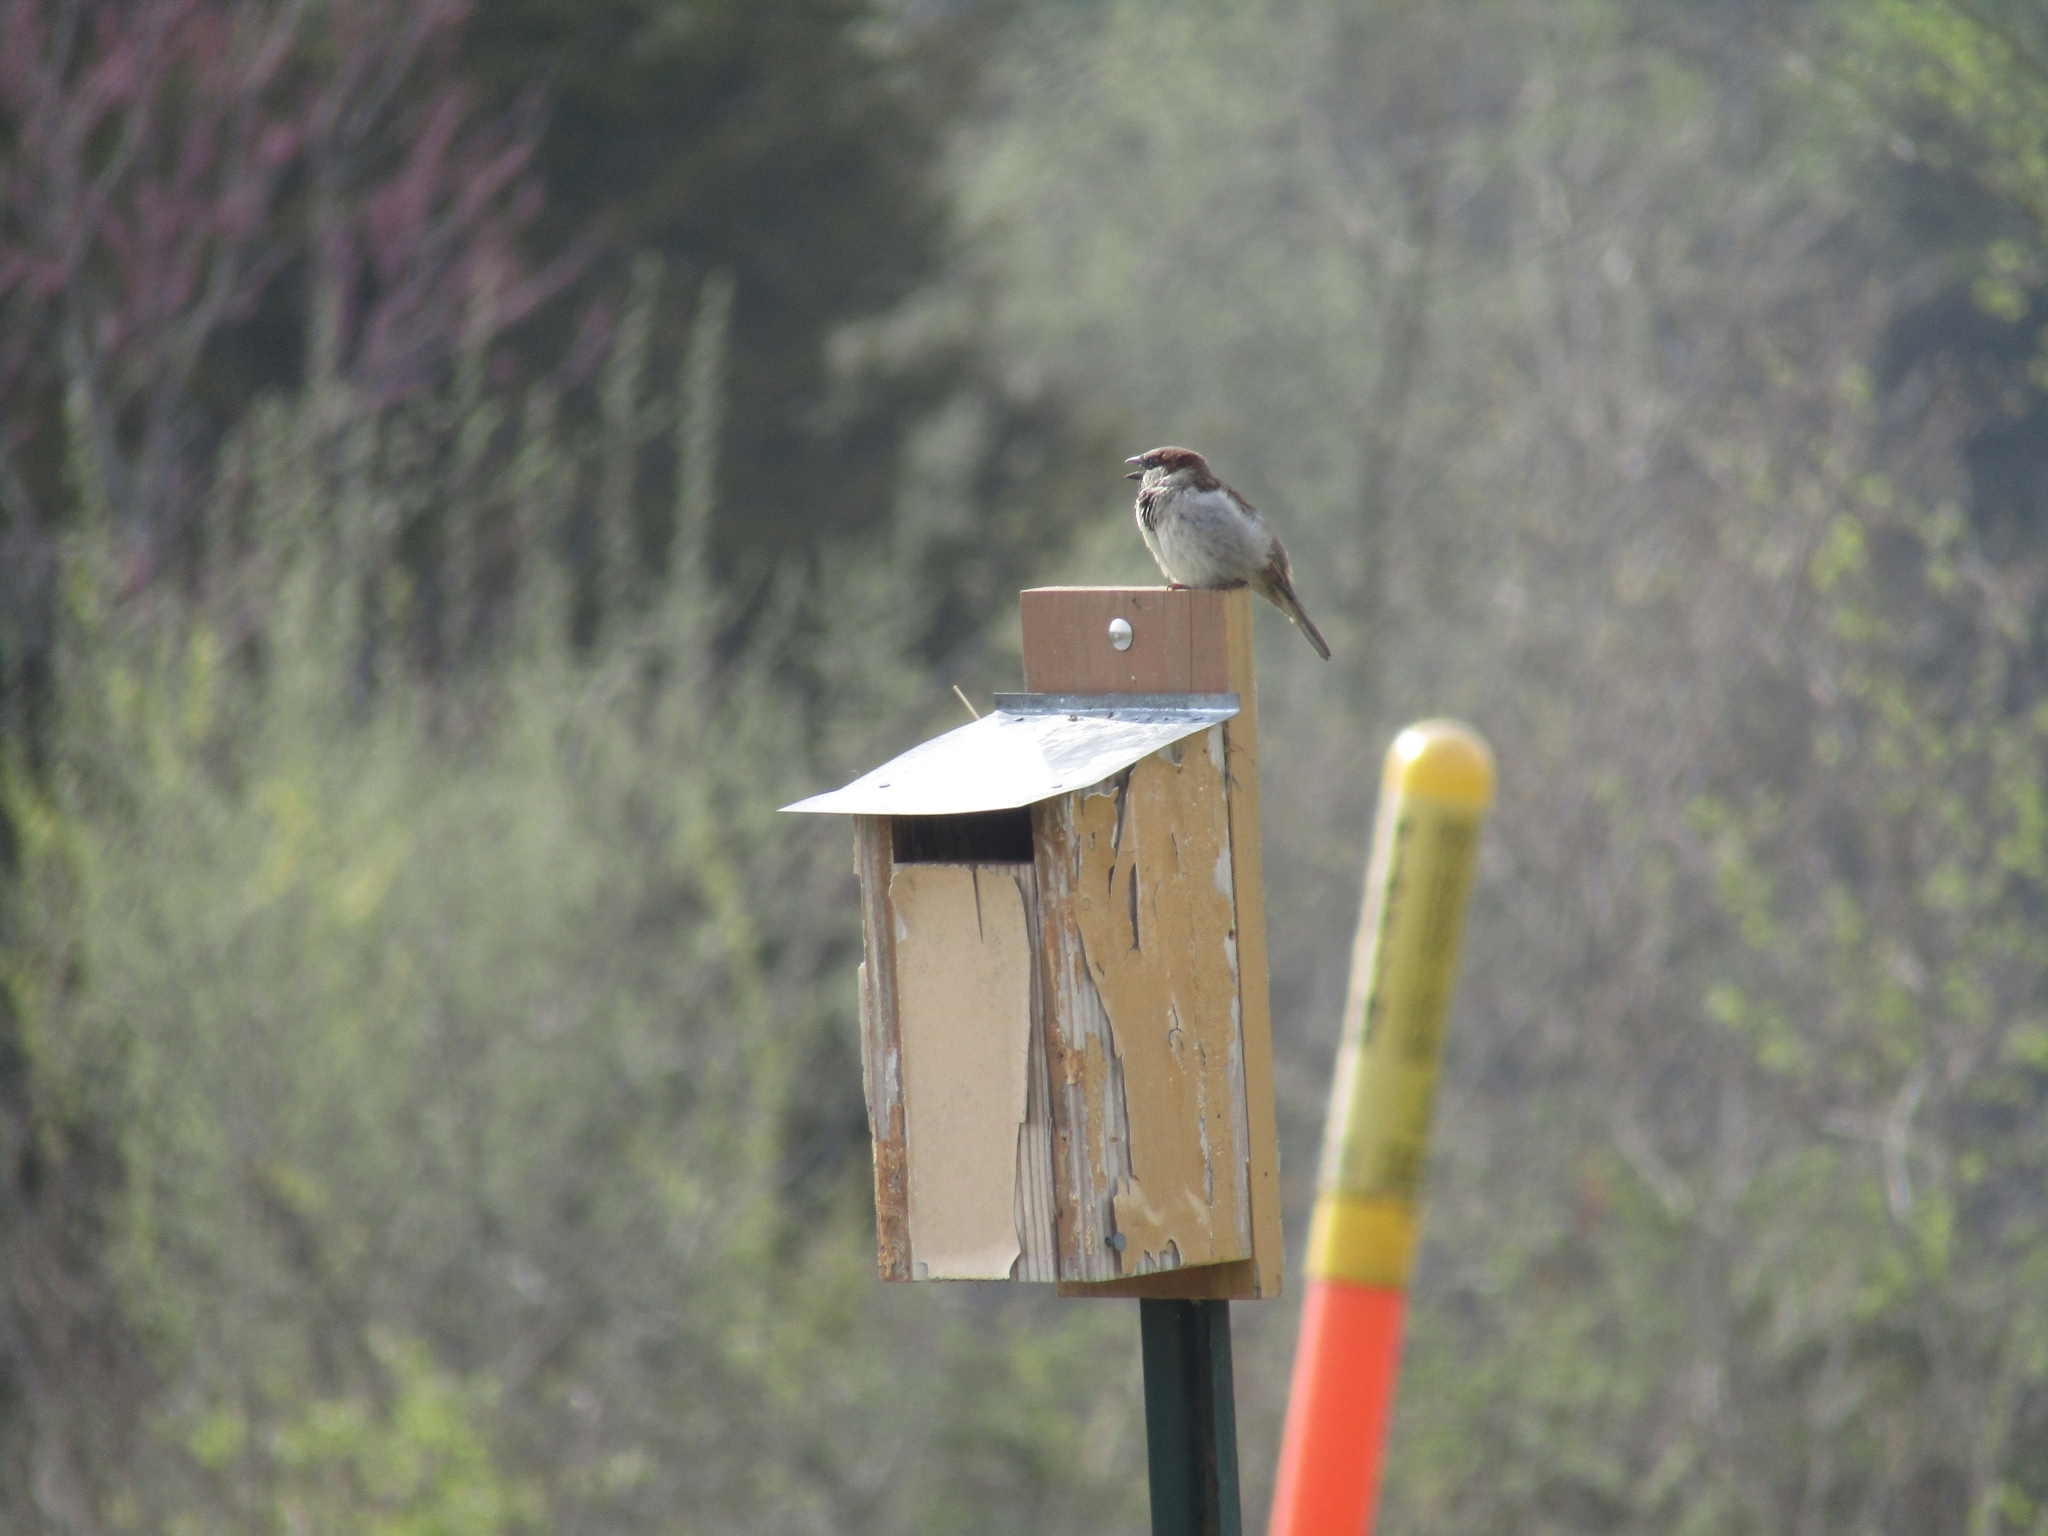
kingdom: Animalia
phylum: Chordata
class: Aves
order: Passeriformes
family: Passeridae
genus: Passer
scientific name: Passer domesticus
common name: House sparrow
